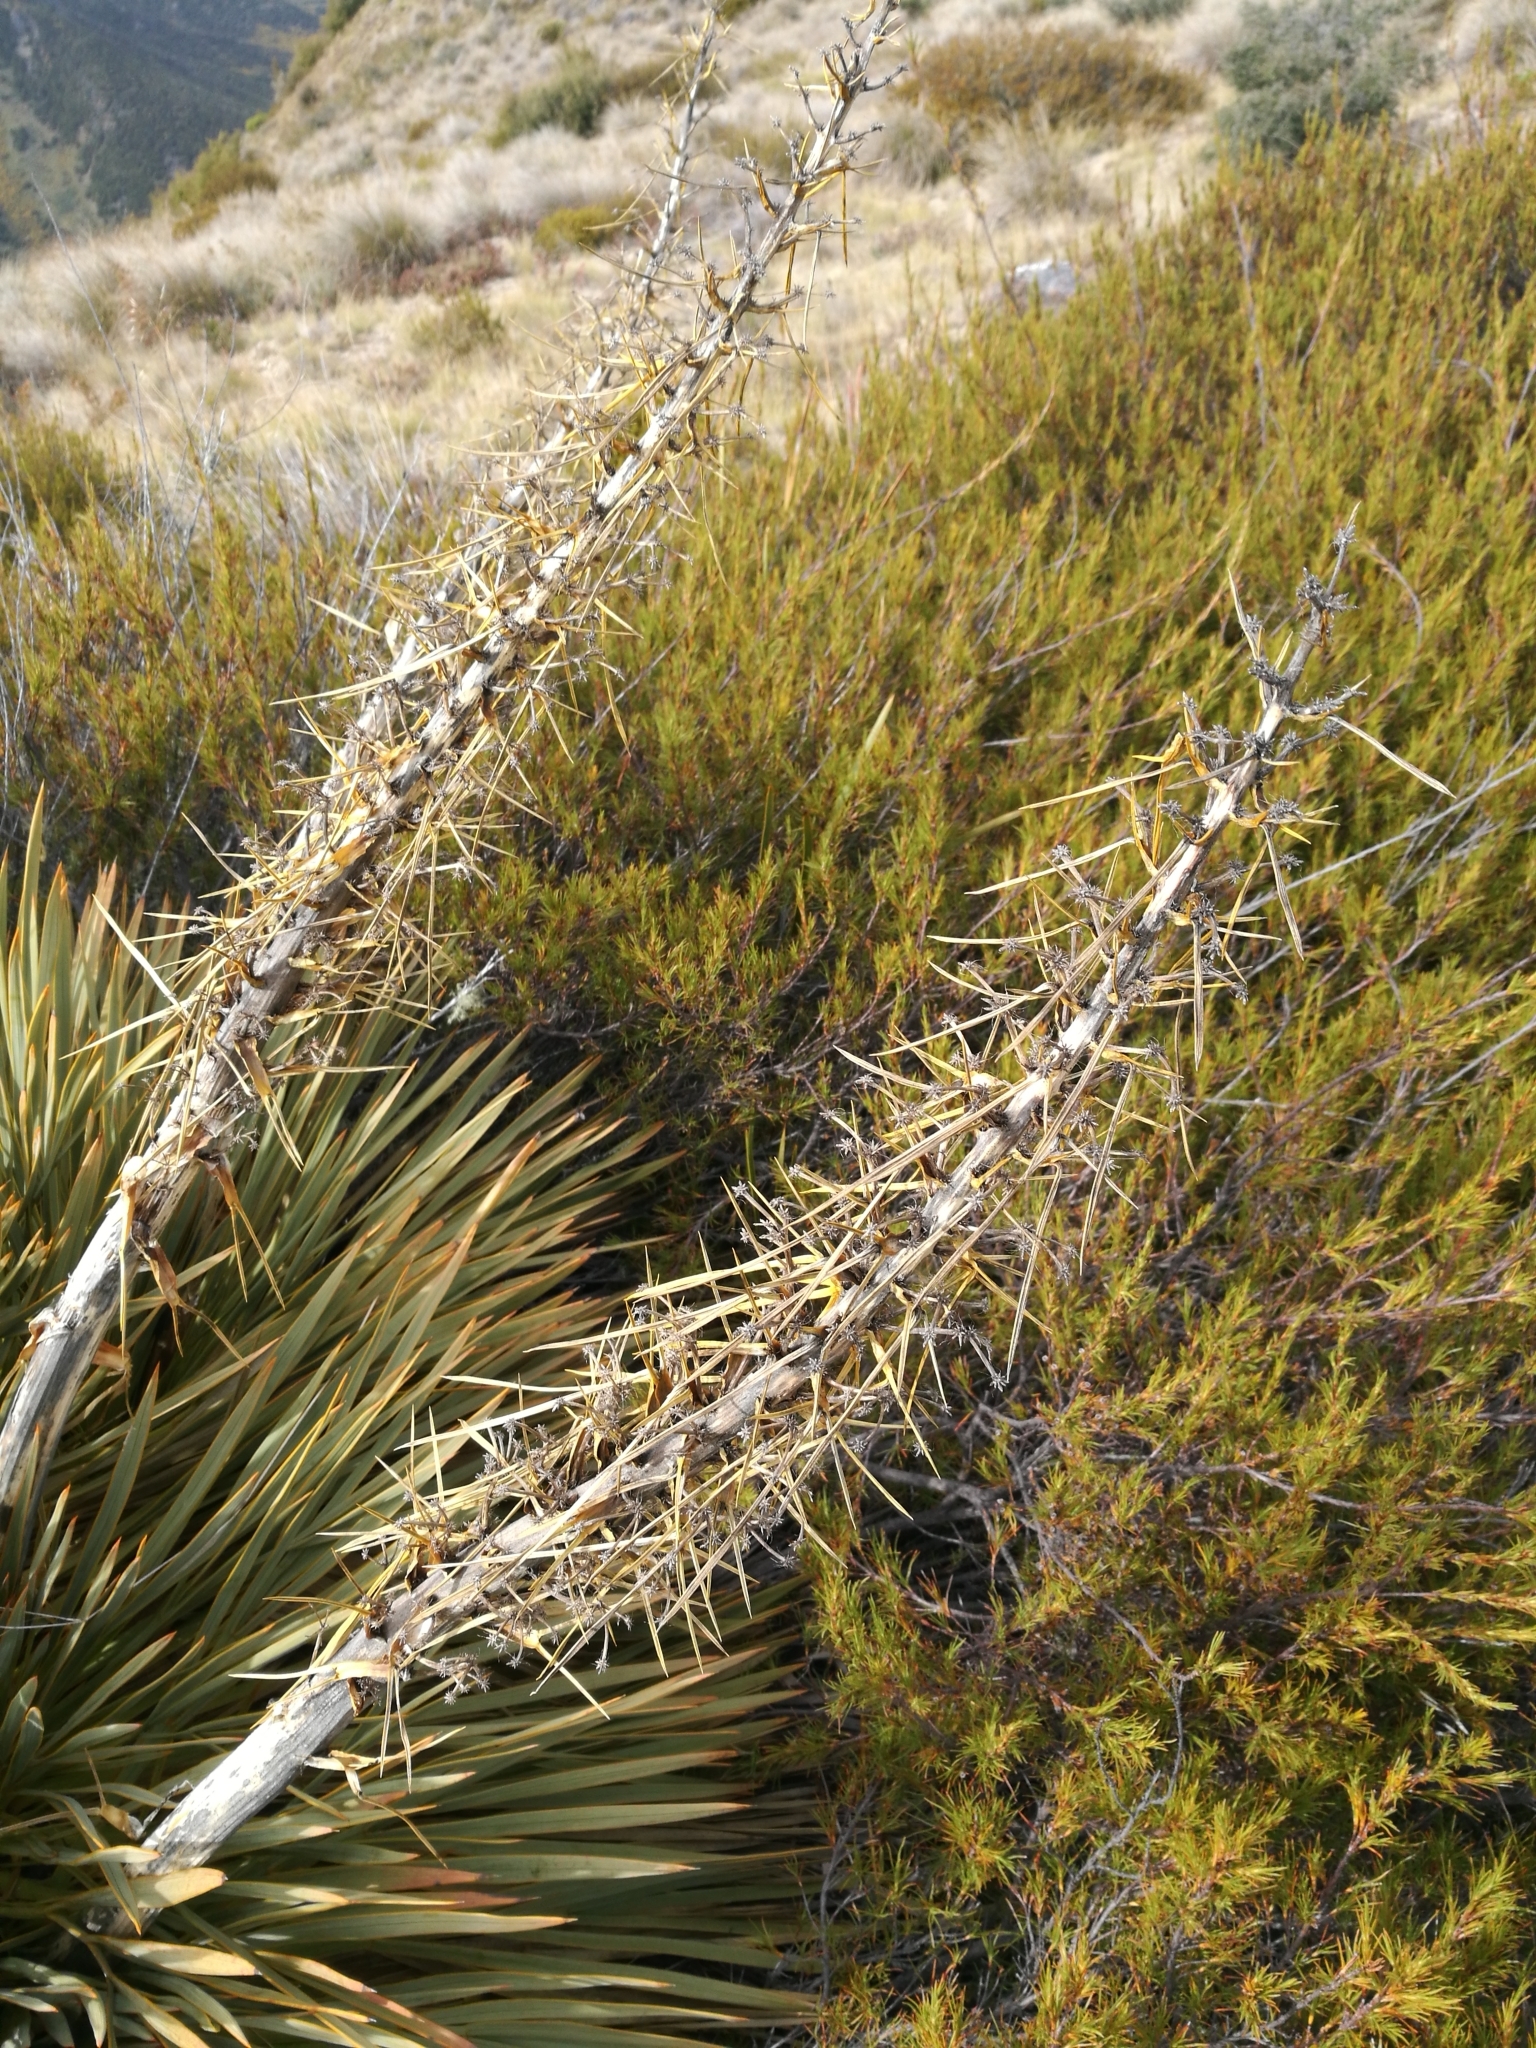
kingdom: Plantae
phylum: Tracheophyta
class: Magnoliopsida
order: Apiales
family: Apiaceae
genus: Aciphylla
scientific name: Aciphylla aurea
